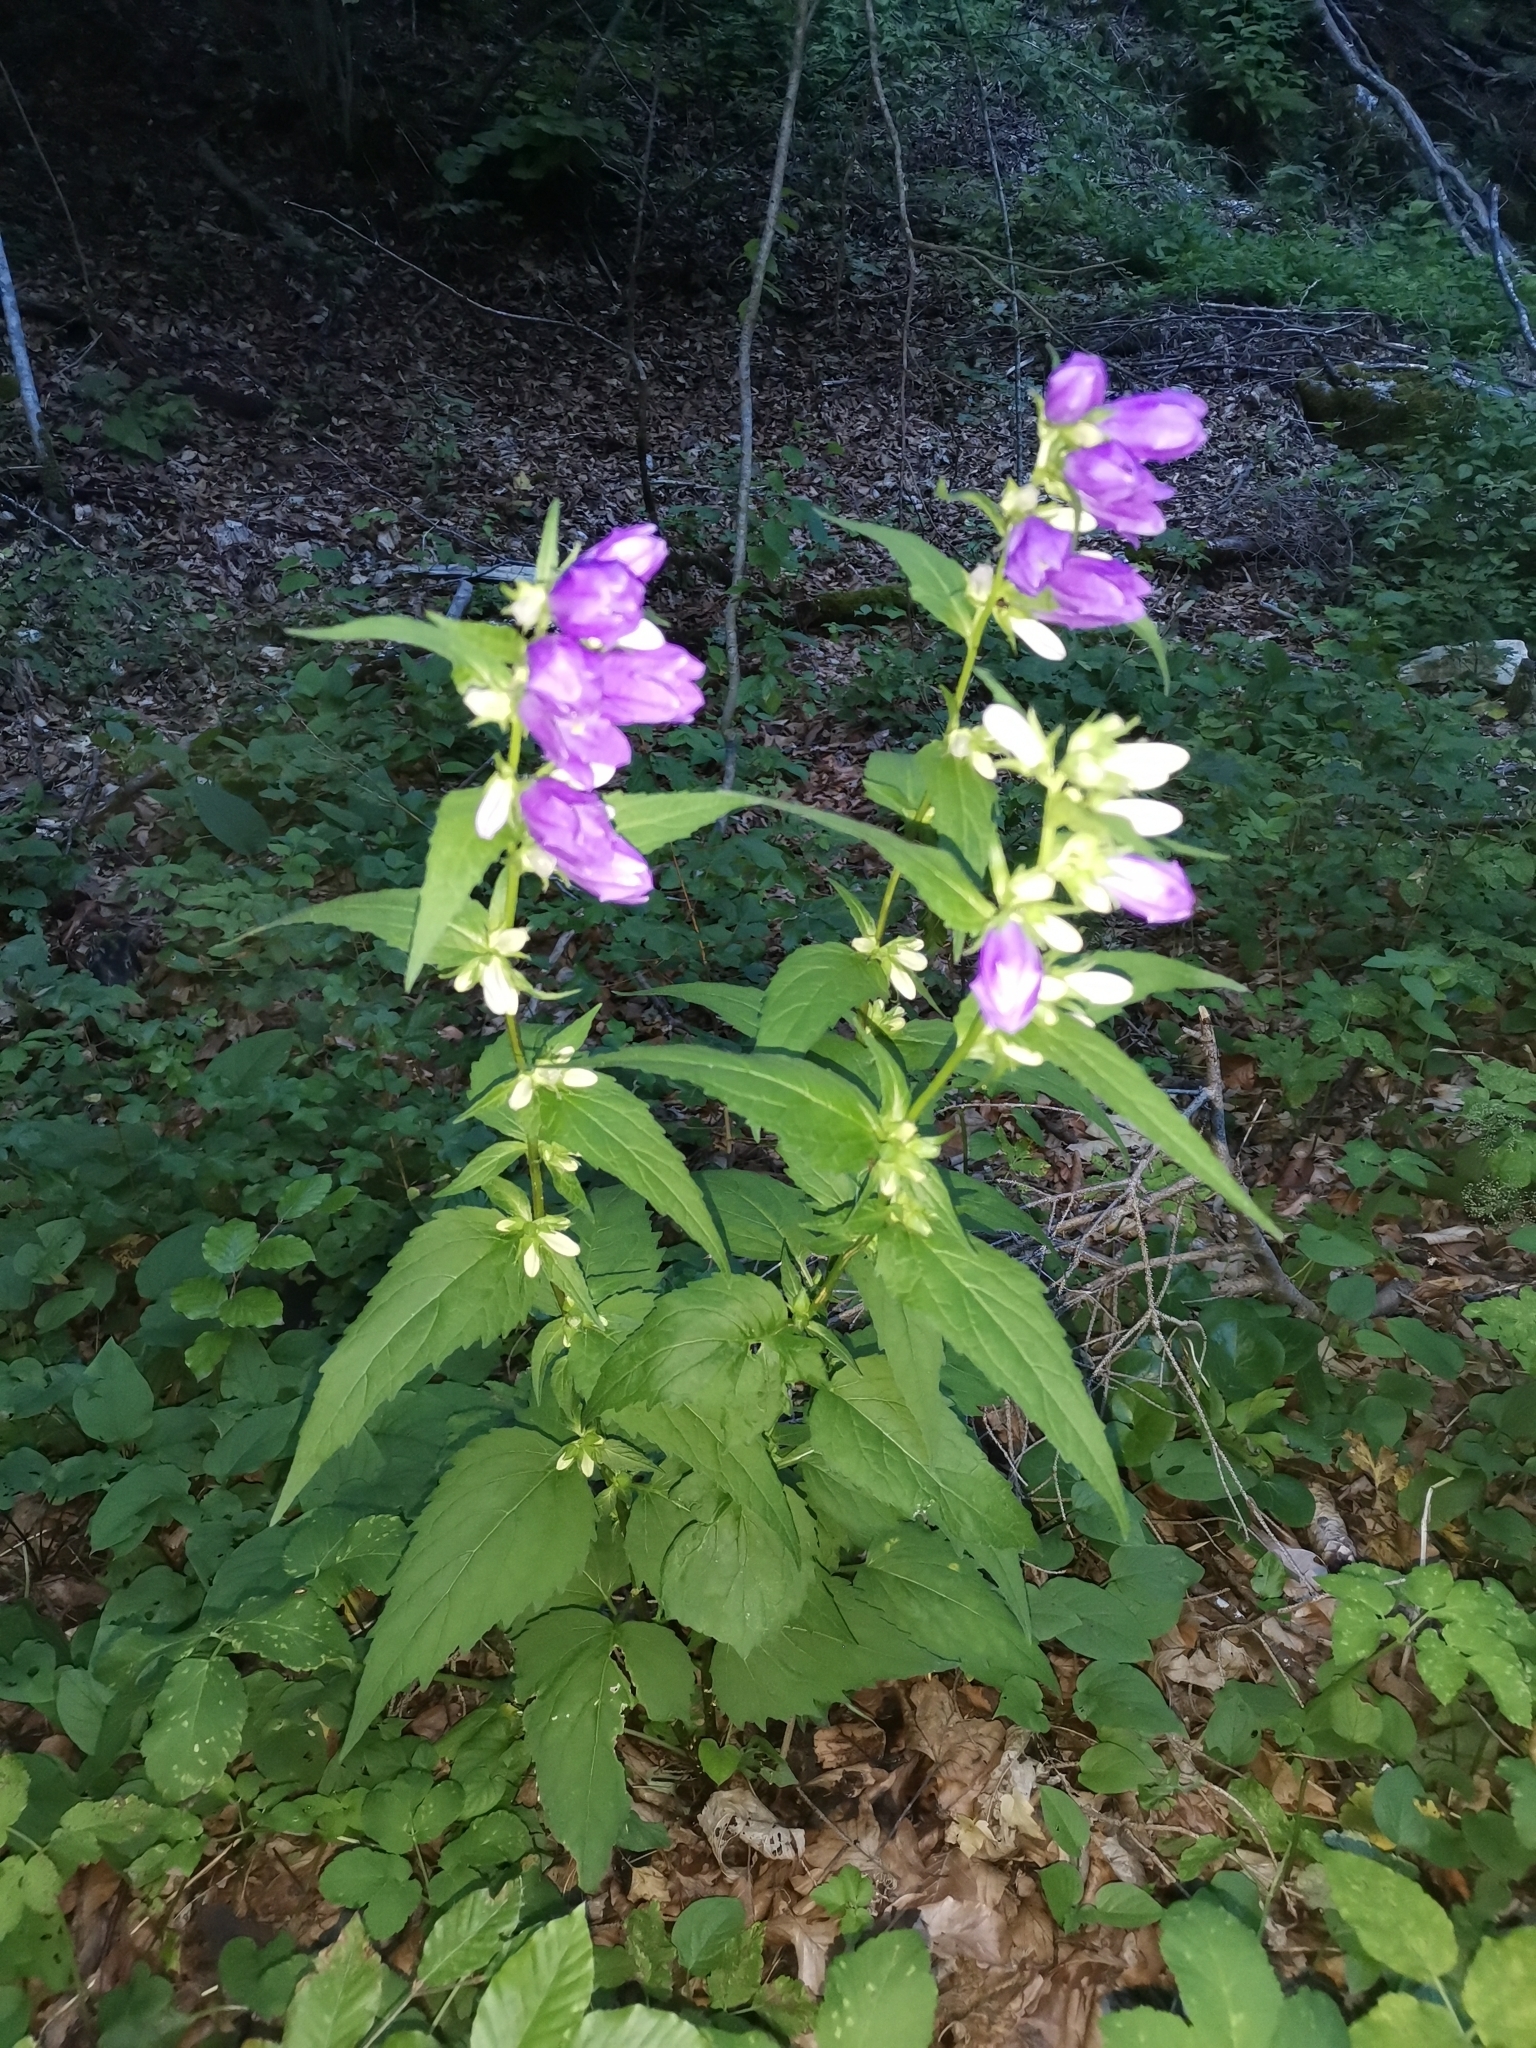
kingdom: Plantae
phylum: Tracheophyta
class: Magnoliopsida
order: Asterales
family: Campanulaceae
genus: Campanula
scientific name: Campanula trachelium
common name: Nettle-leaved bellflower
